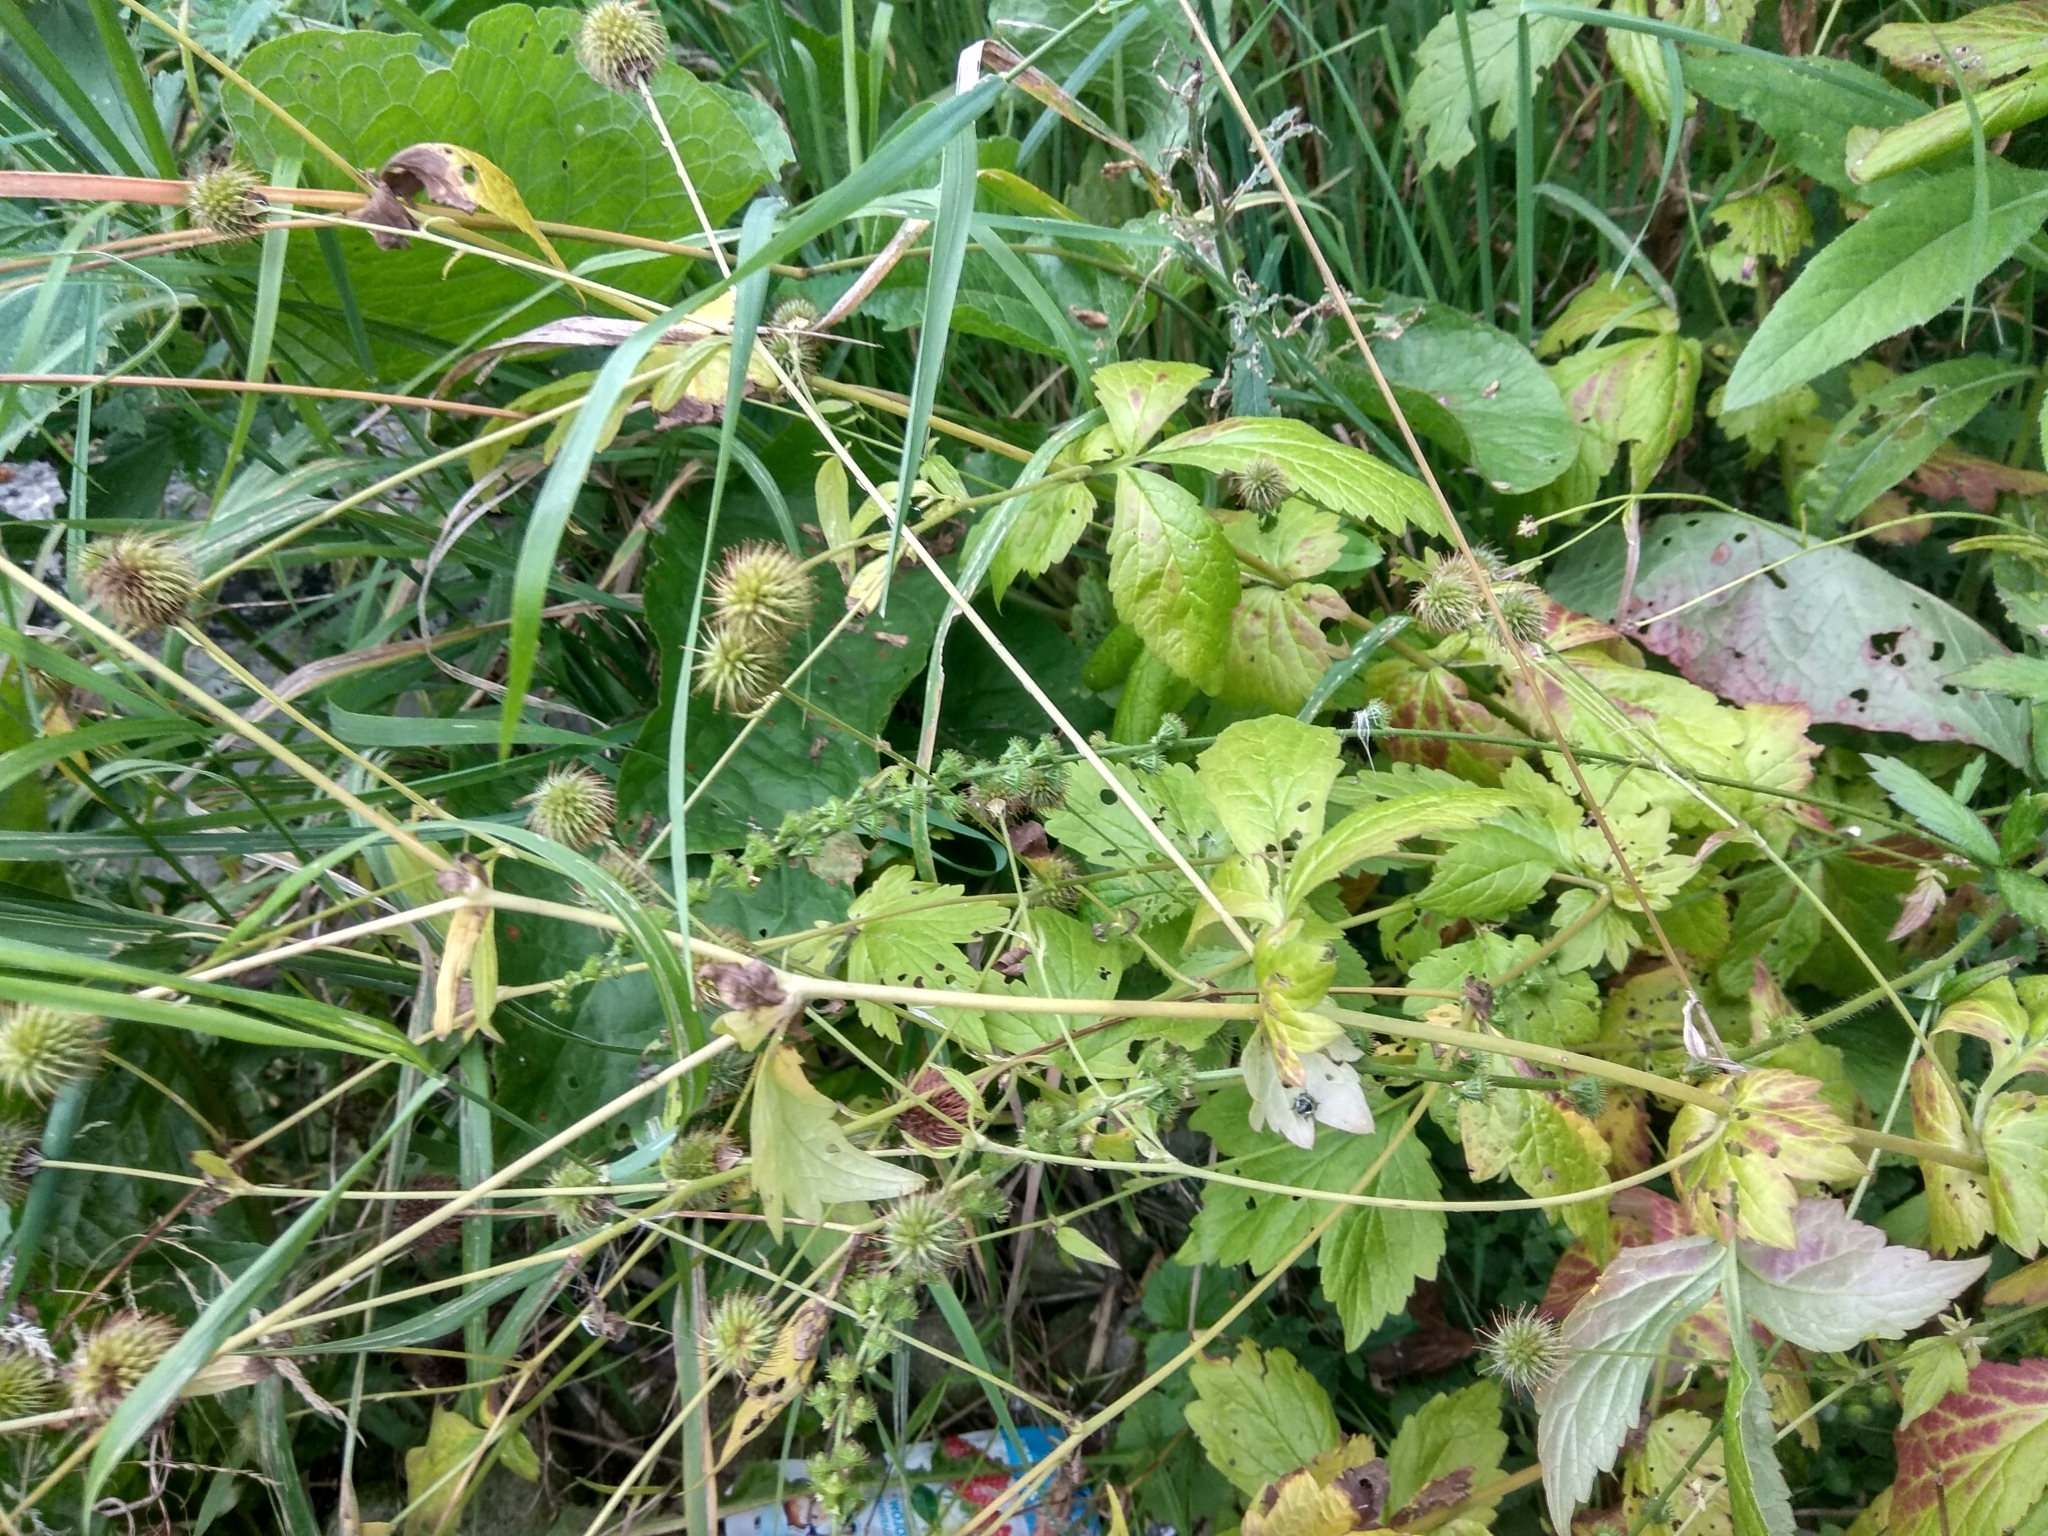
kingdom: Plantae
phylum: Tracheophyta
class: Magnoliopsida
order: Rosales
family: Rosaceae
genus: Geum
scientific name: Geum urbanum
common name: Wood avens
